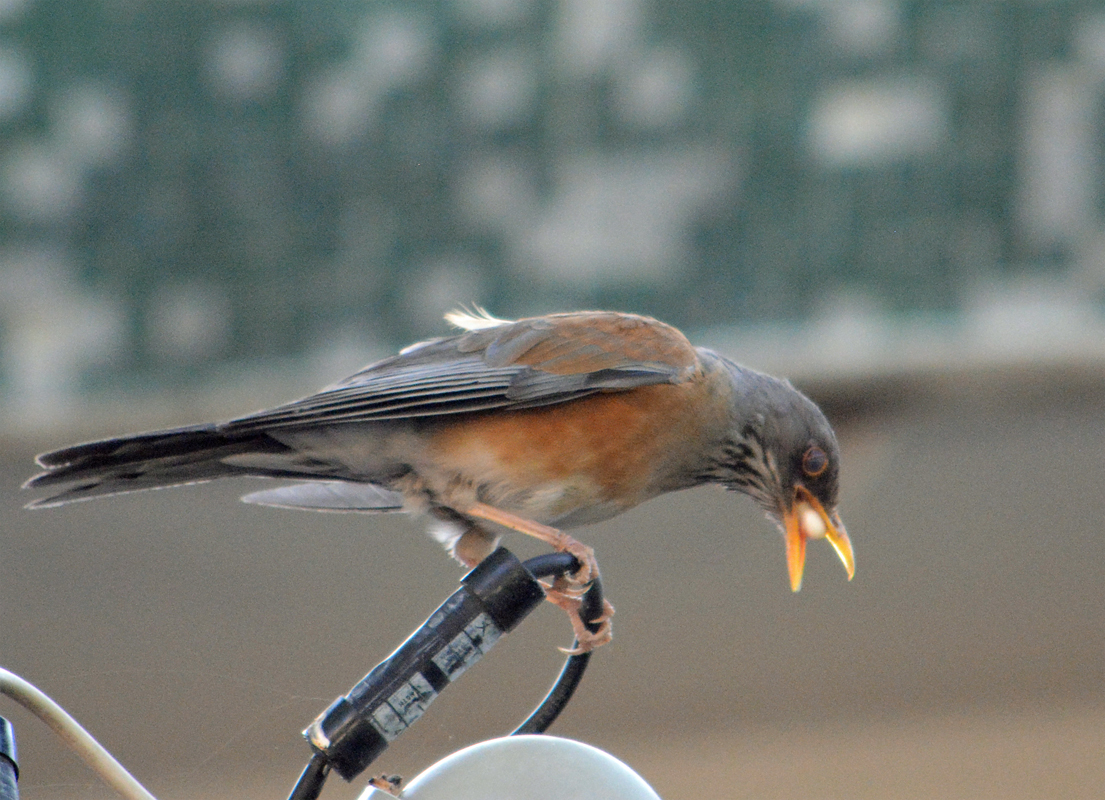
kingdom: Animalia
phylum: Chordata
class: Aves
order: Passeriformes
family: Turdidae
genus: Turdus
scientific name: Turdus rufopalliatus
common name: Rufous-backed robin
